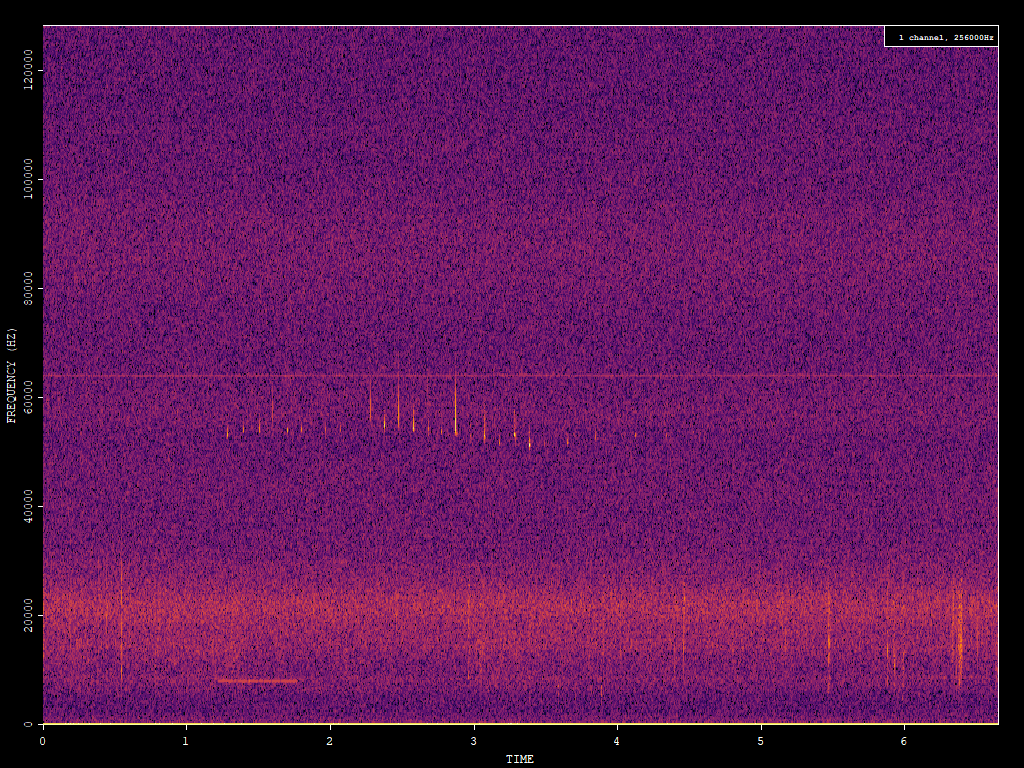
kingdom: Animalia
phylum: Chordata
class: Mammalia
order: Chiroptera
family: Vespertilionidae
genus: Pipistrellus
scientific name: Pipistrellus pygmaeus
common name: Soprano pipistrelle
